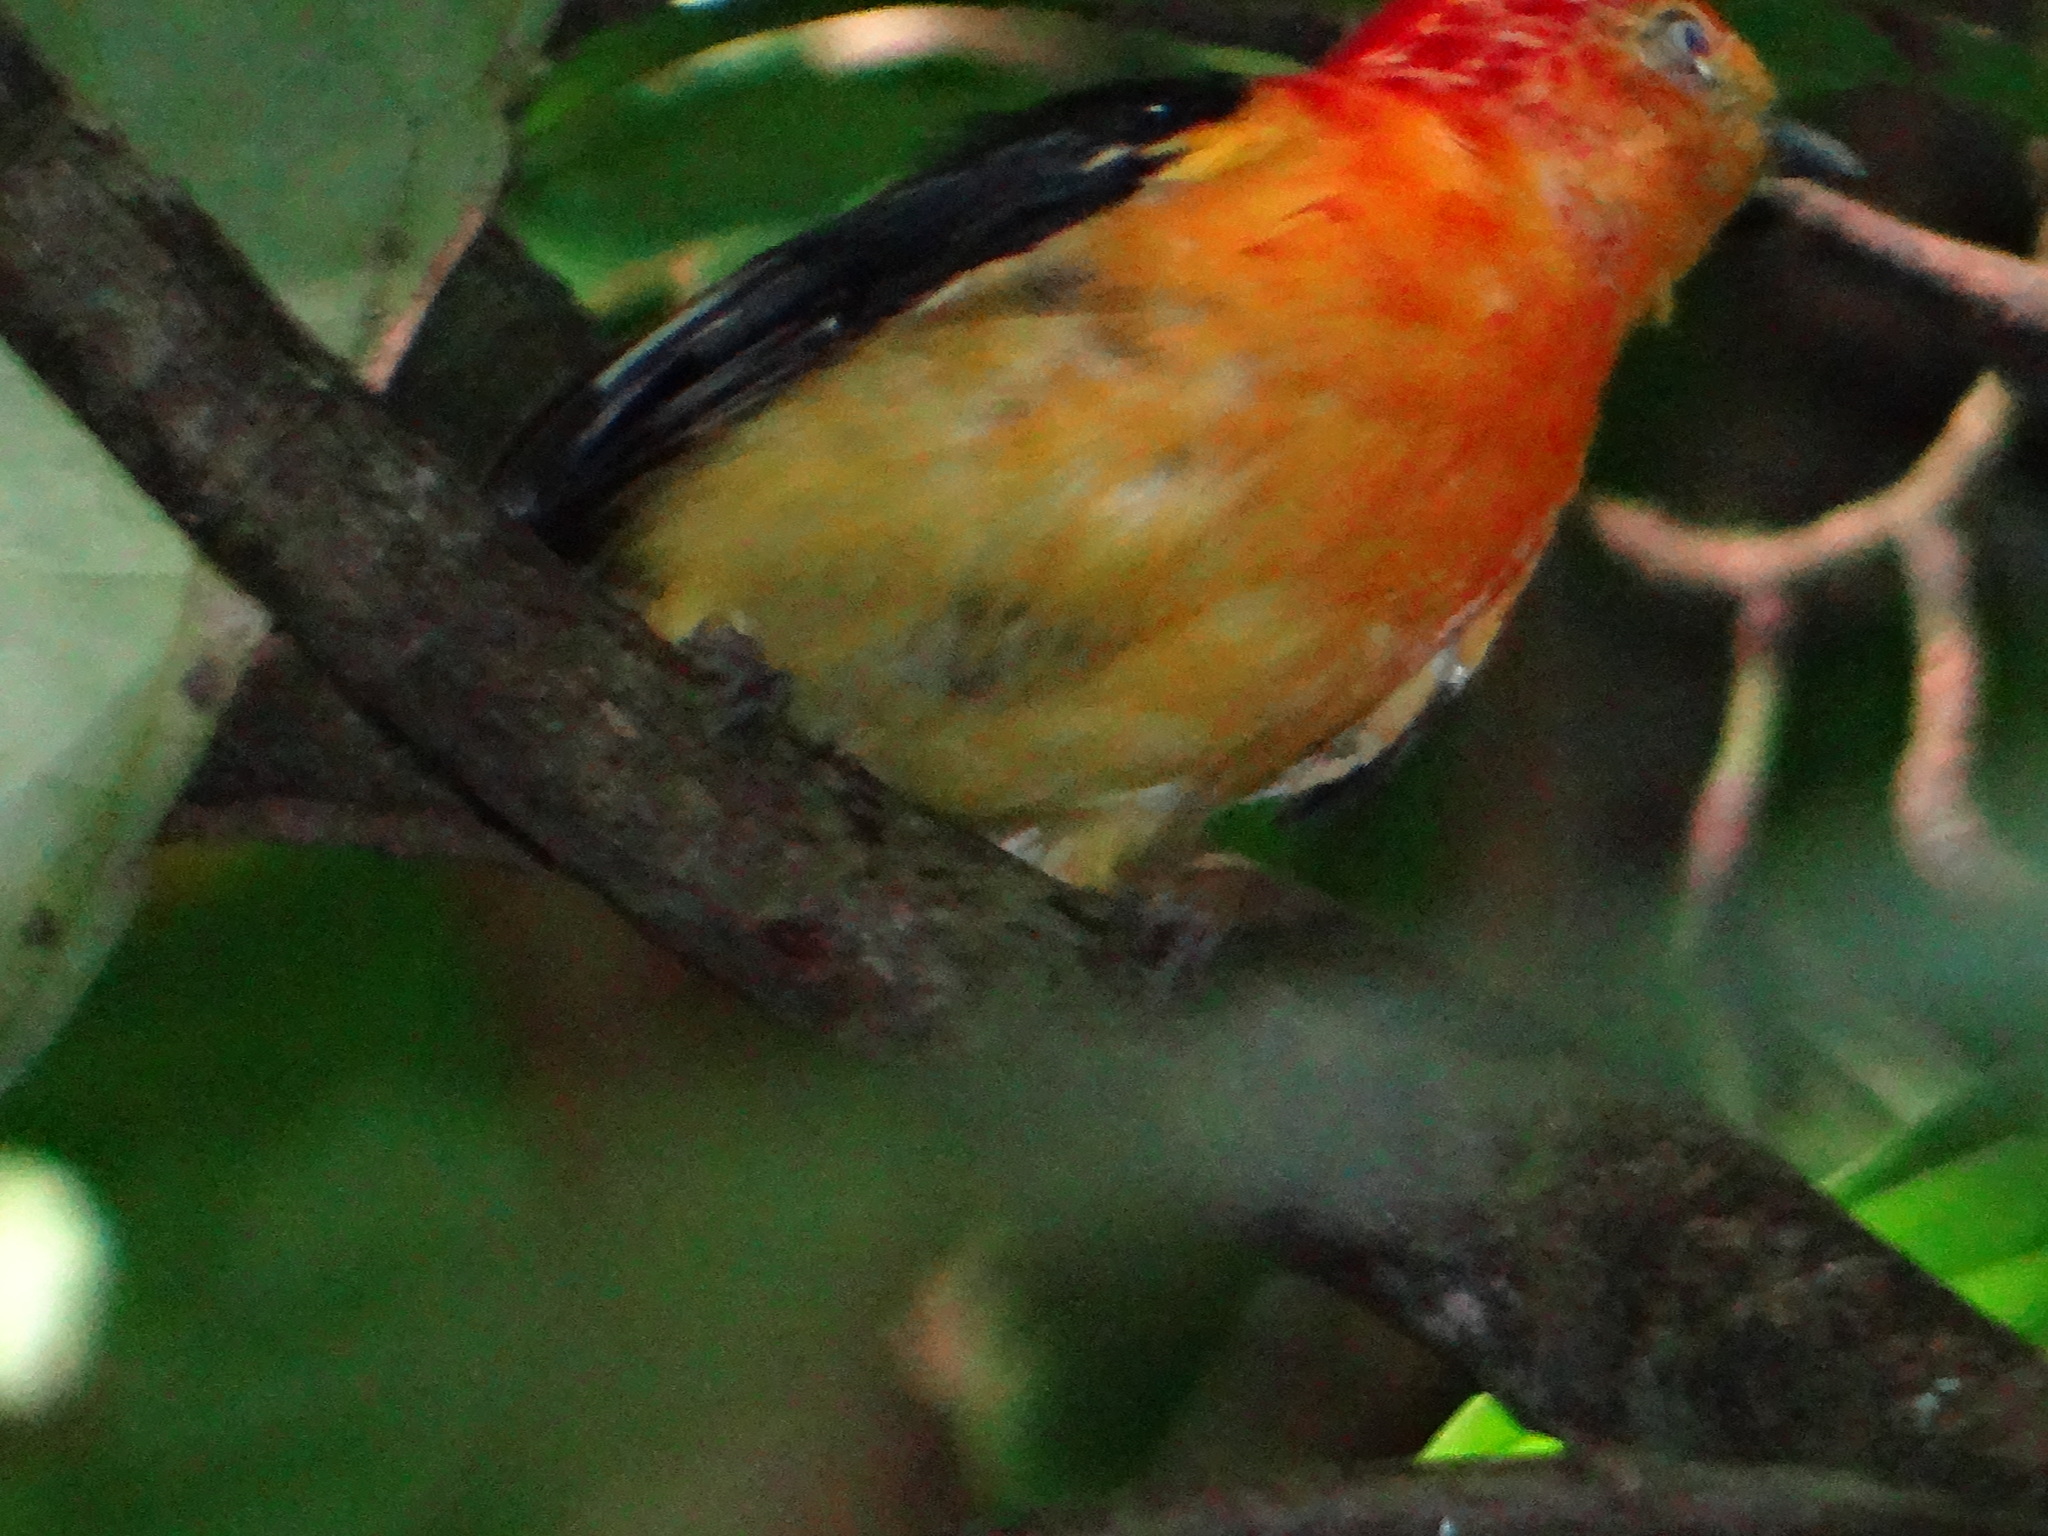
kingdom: Animalia
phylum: Chordata
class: Aves
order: Passeriformes
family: Pipridae
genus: Pipra
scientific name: Pipra fasciicauda
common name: Band-tailed manakin
